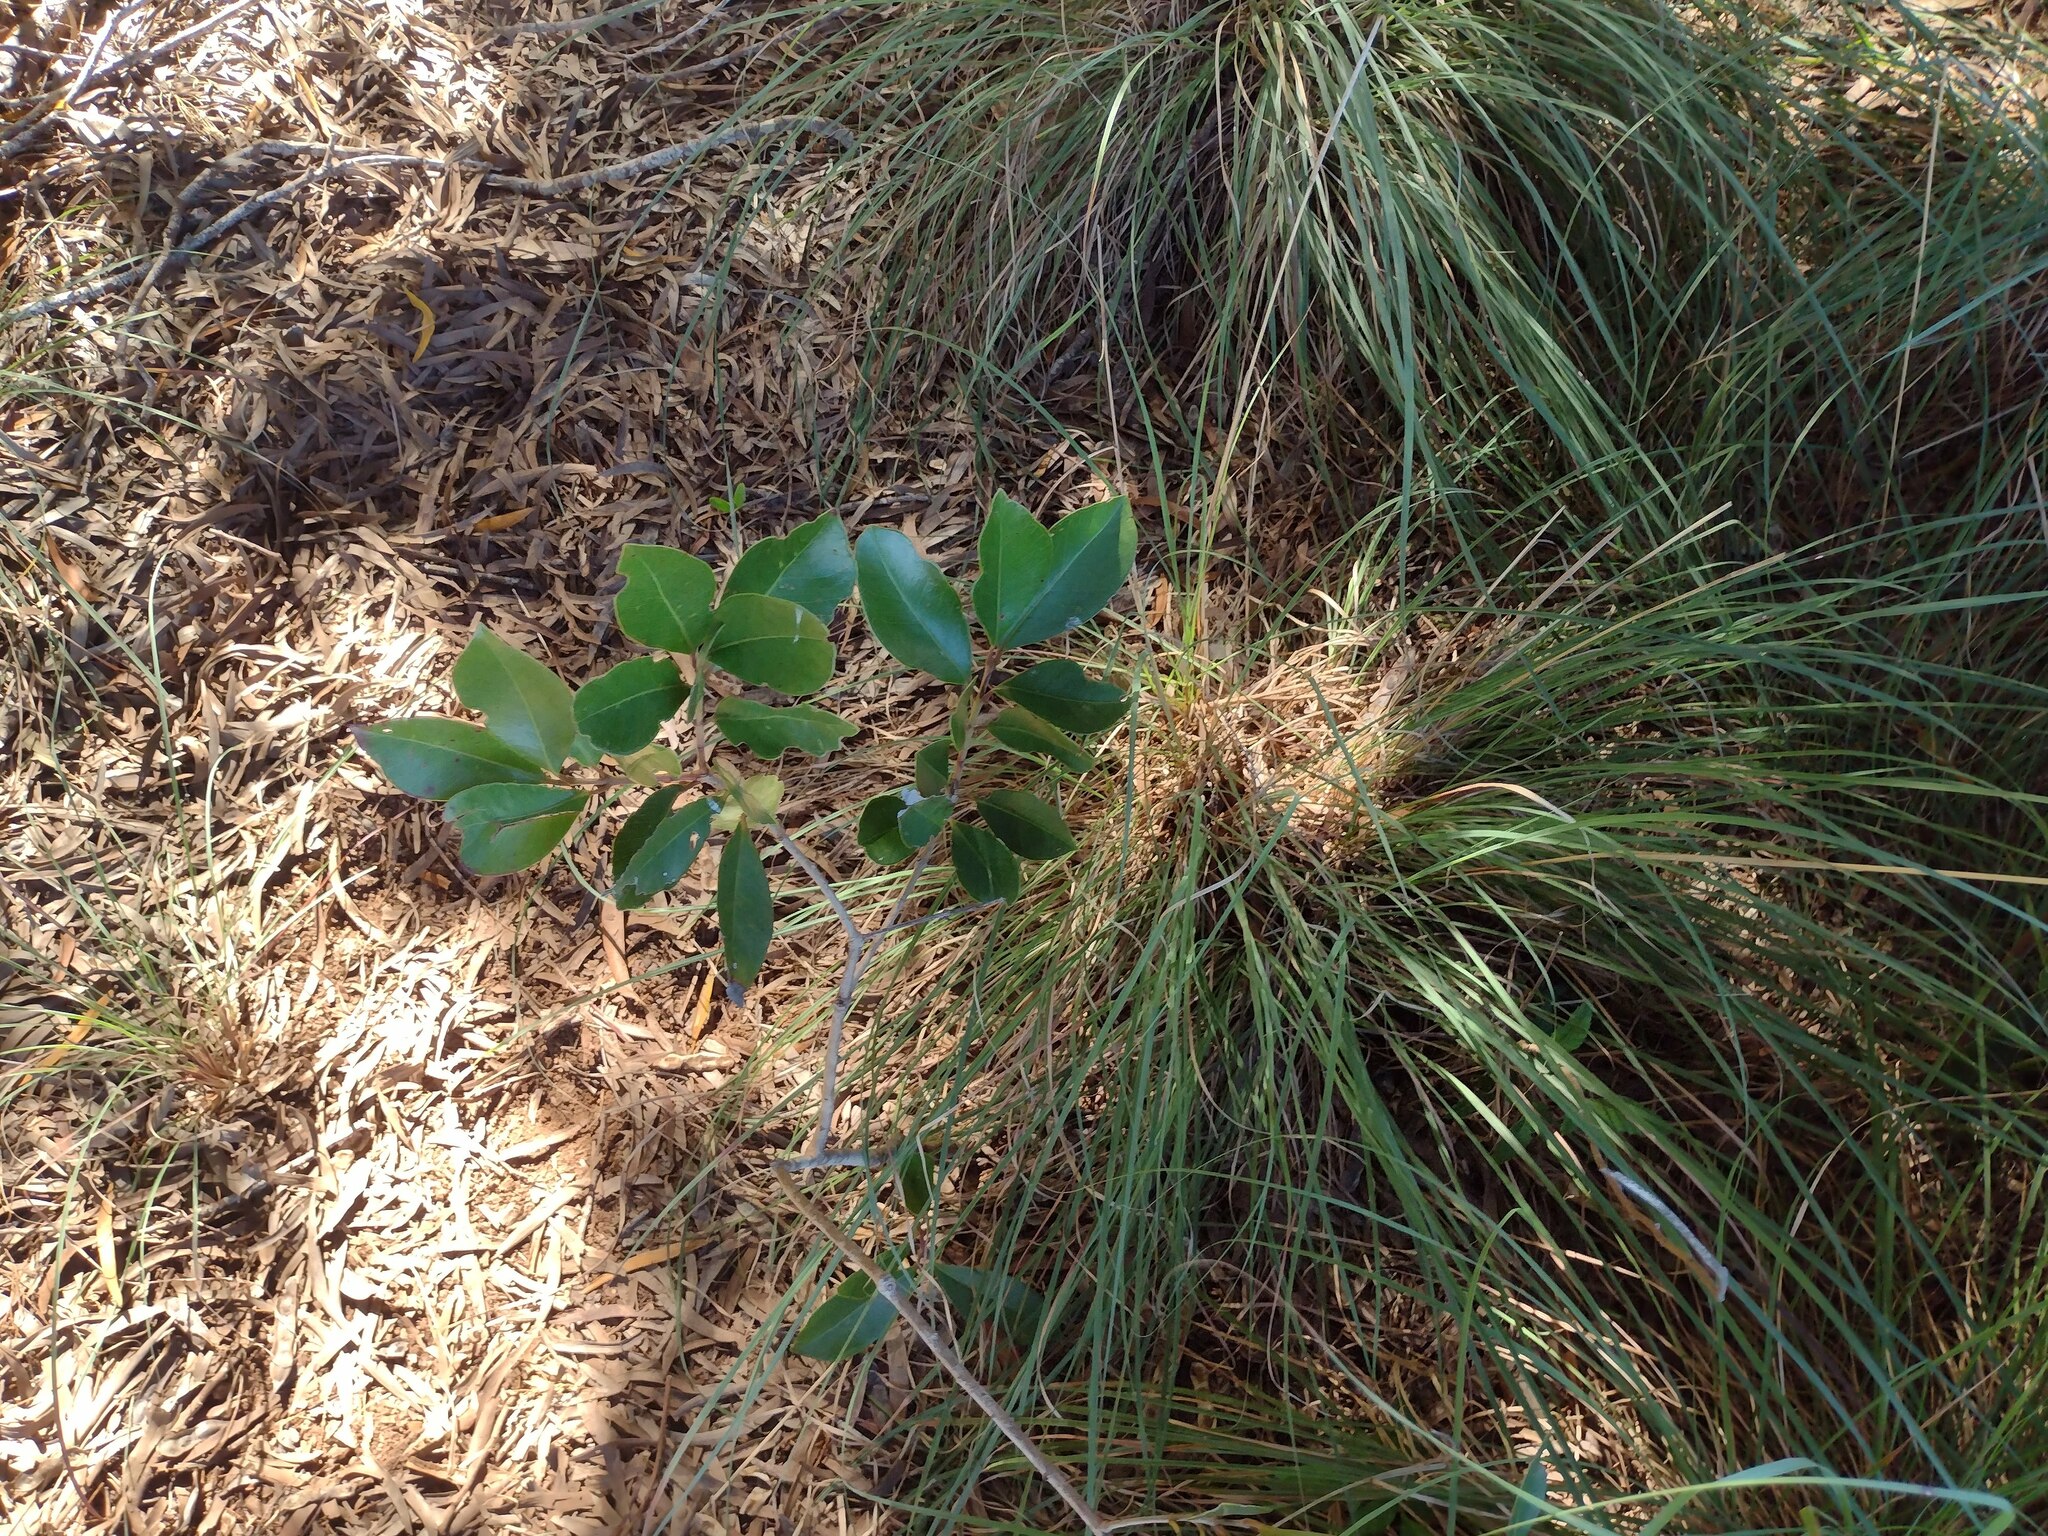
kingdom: Plantae
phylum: Tracheophyta
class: Magnoliopsida
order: Myrtales
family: Myrtaceae
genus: Psidium
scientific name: Psidium cattleianum
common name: Strawberry guava
